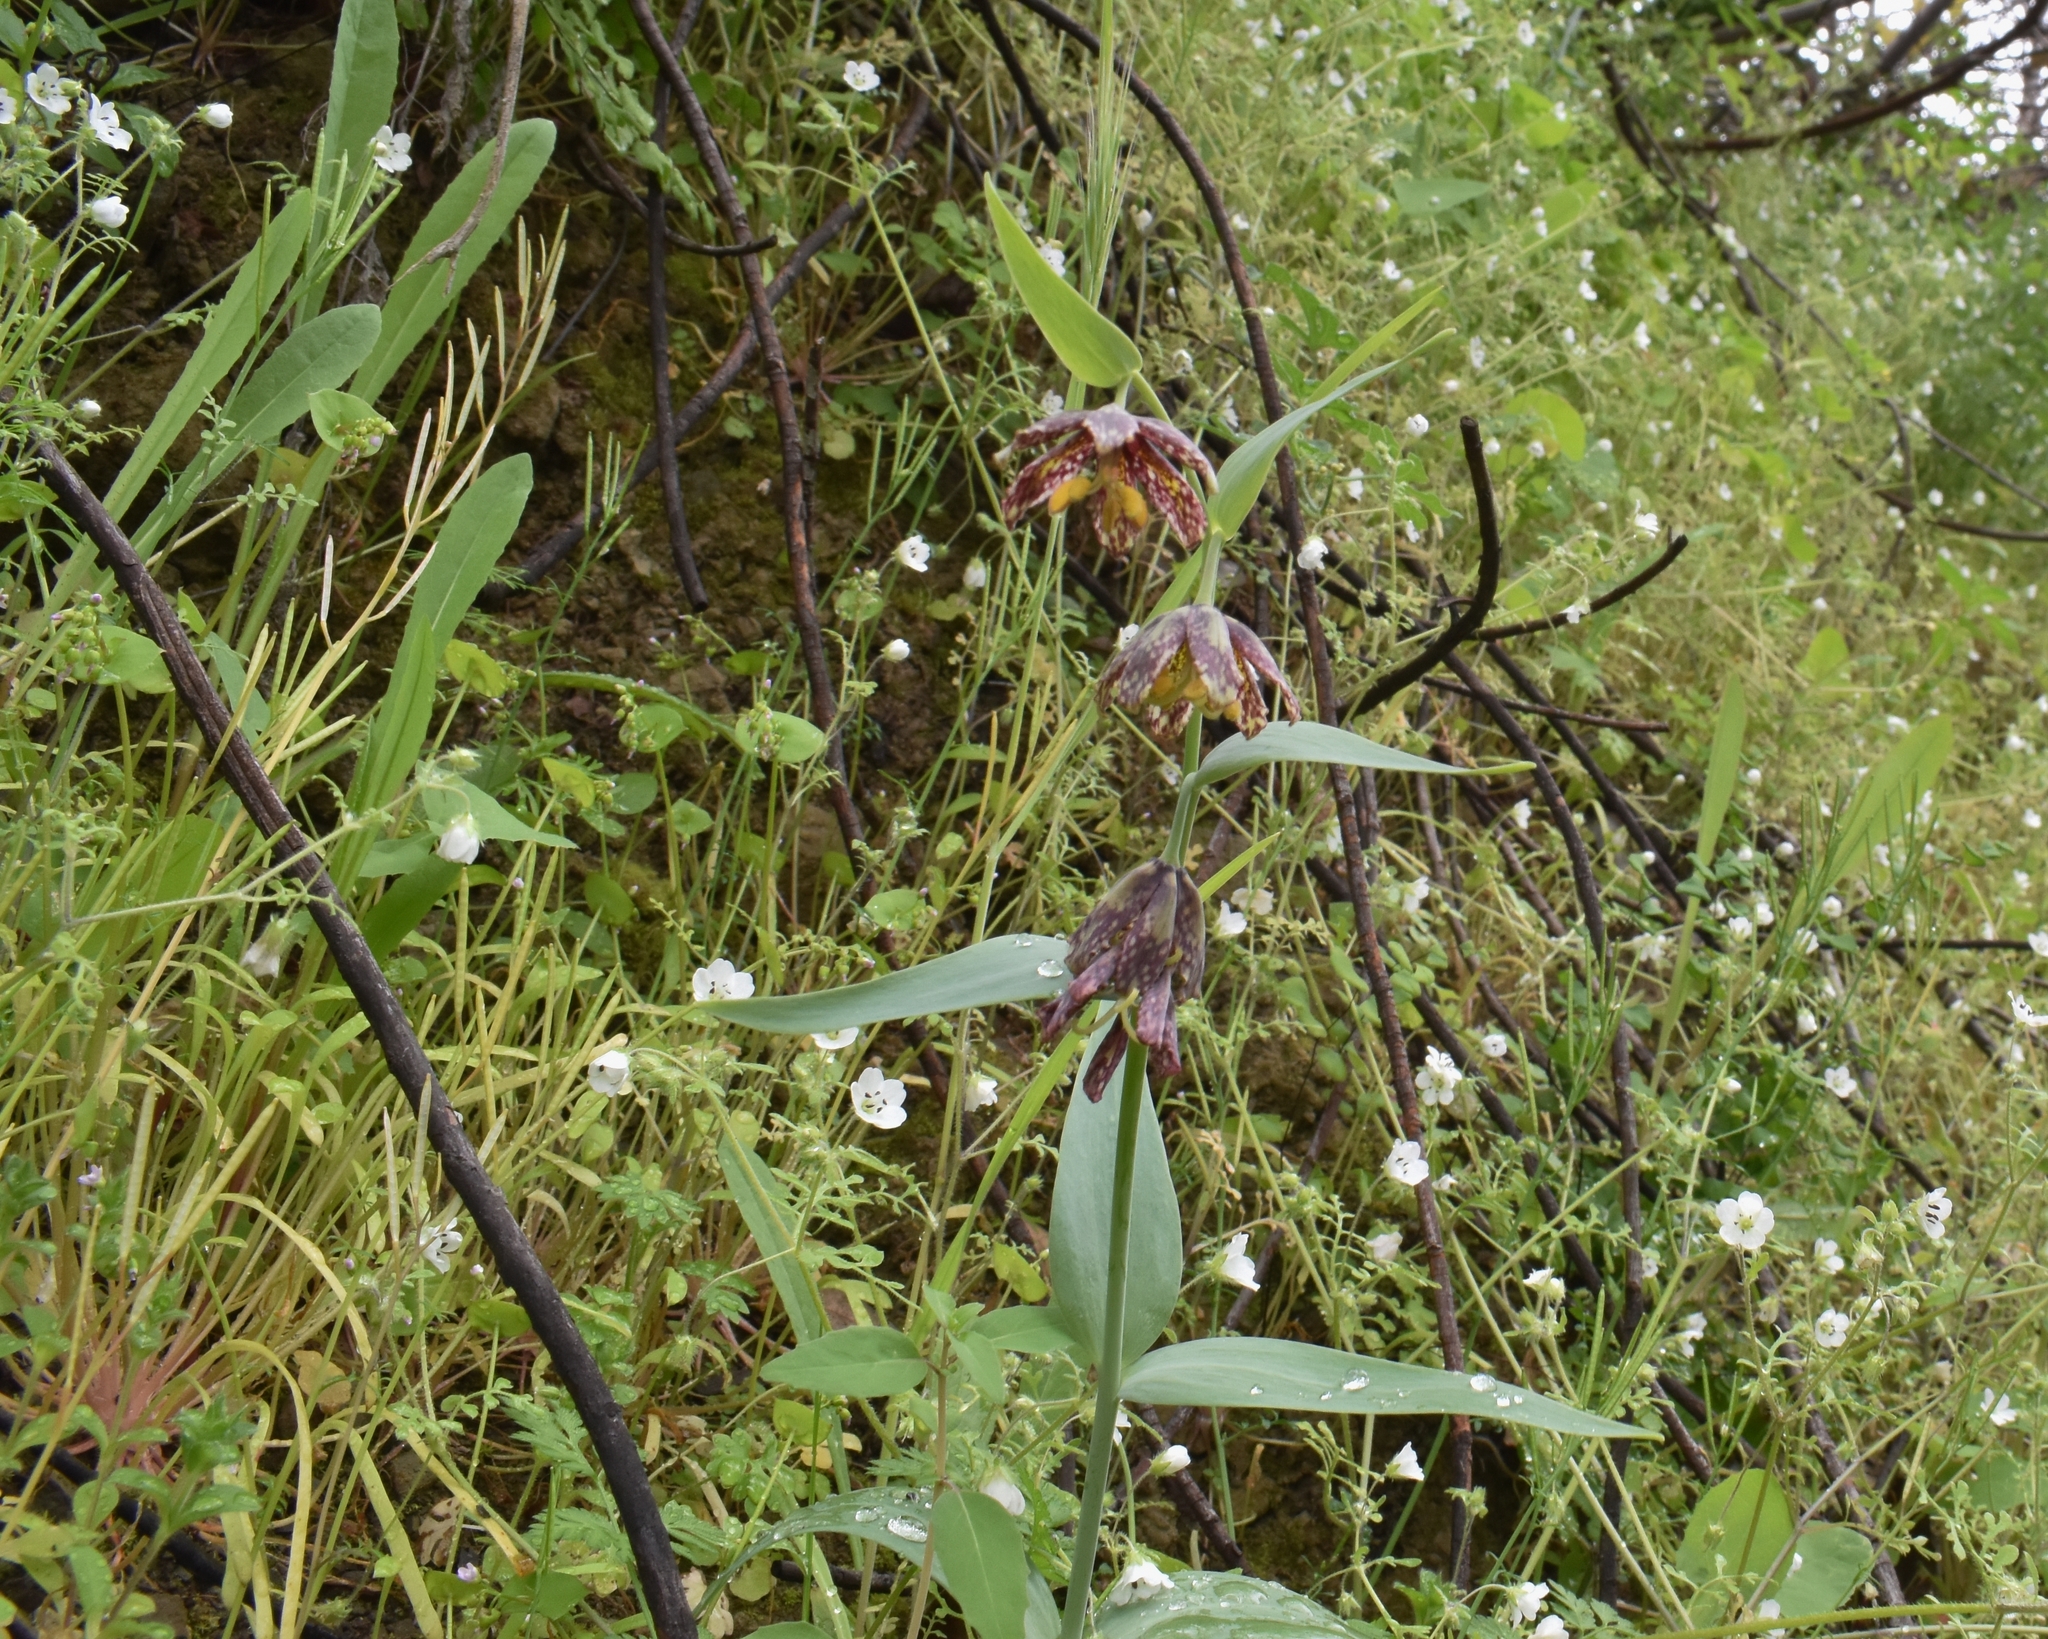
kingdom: Plantae
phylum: Tracheophyta
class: Liliopsida
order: Liliales
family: Liliaceae
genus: Fritillaria
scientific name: Fritillaria affinis
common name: Ojai fritillary
